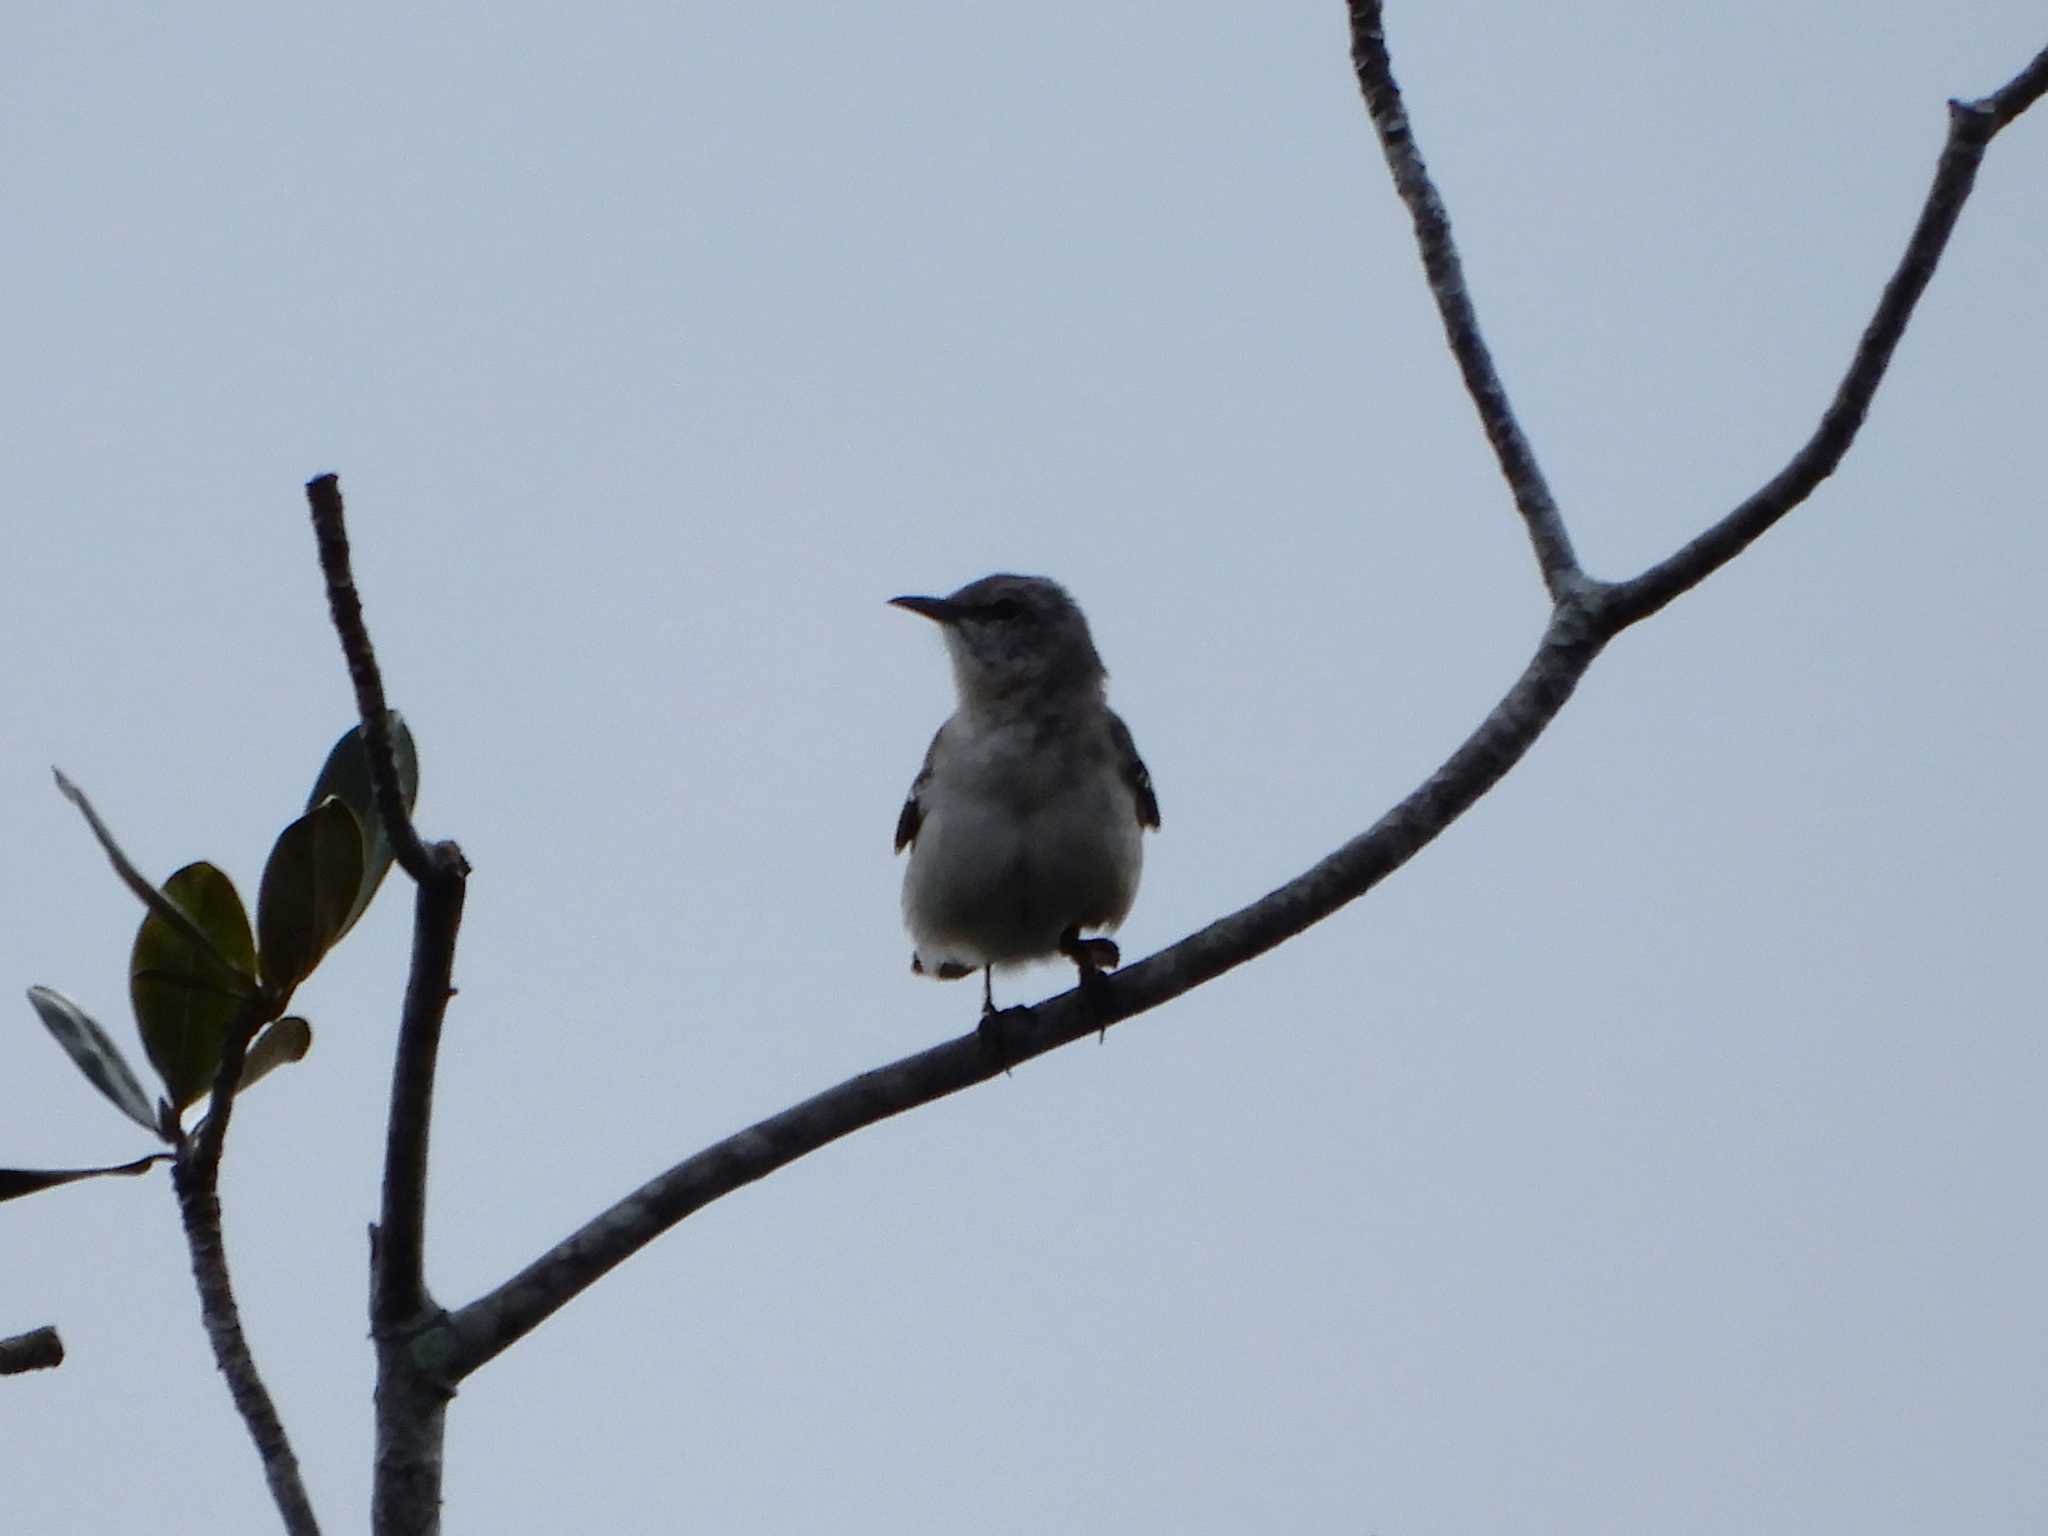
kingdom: Animalia
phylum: Chordata
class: Aves
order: Passeriformes
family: Mimidae
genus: Mimus
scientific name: Mimus polyglottos
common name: Northern mockingbird
